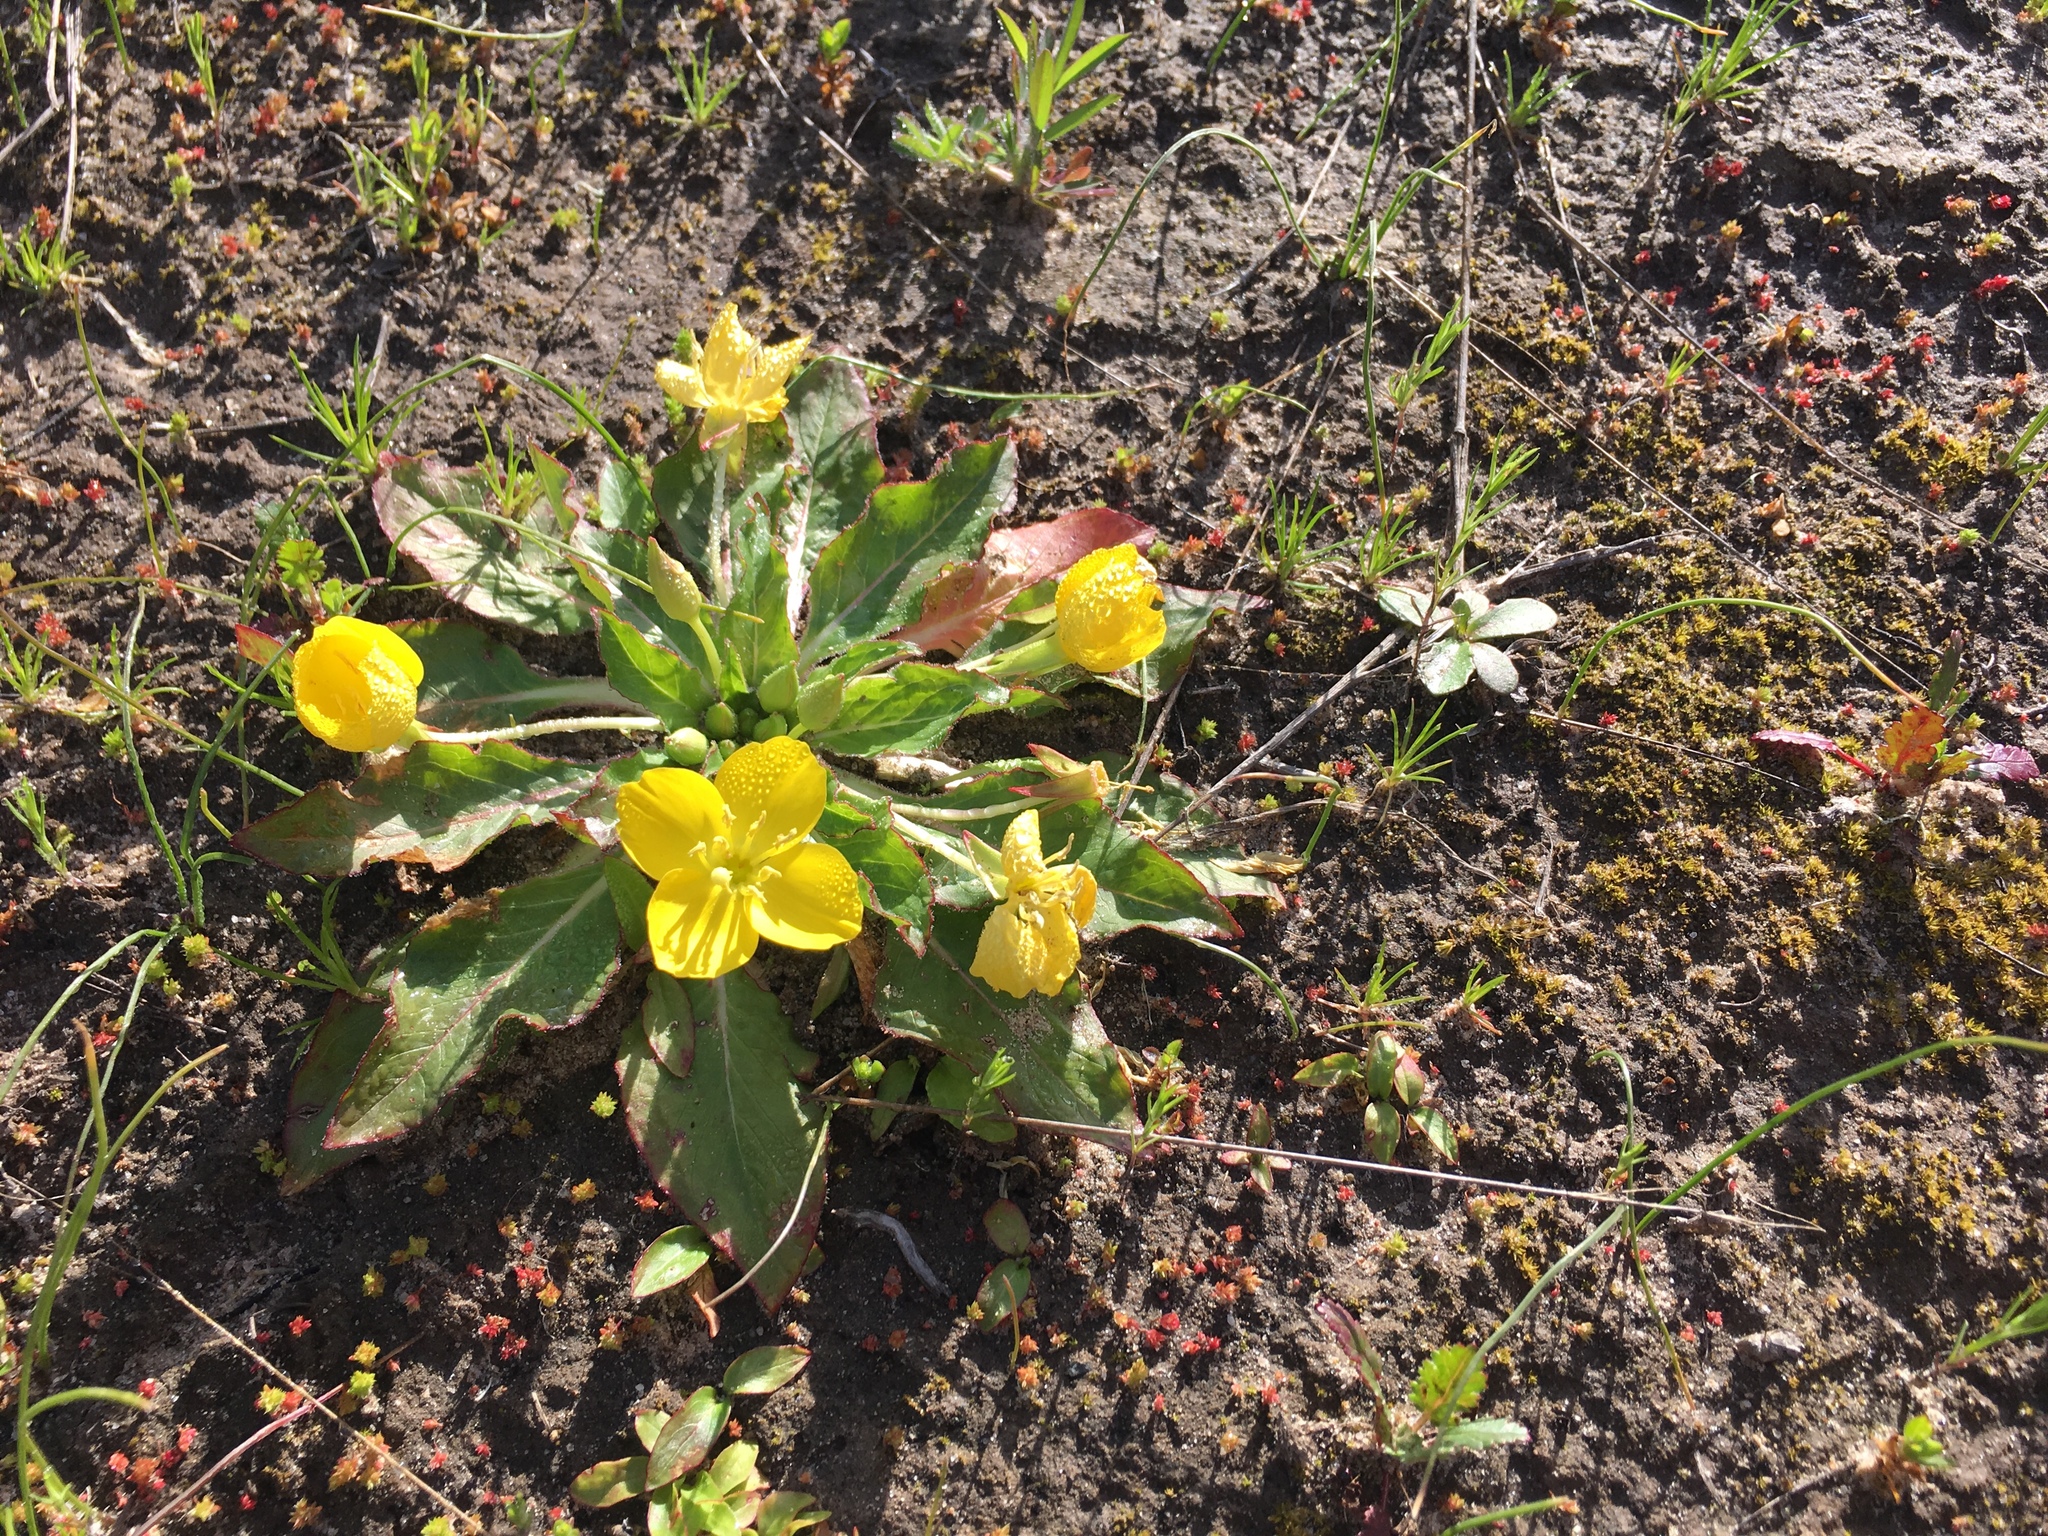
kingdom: Plantae
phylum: Tracheophyta
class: Magnoliopsida
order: Myrtales
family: Onagraceae
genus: Taraxia
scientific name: Taraxia ovata
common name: Goldeneggs
